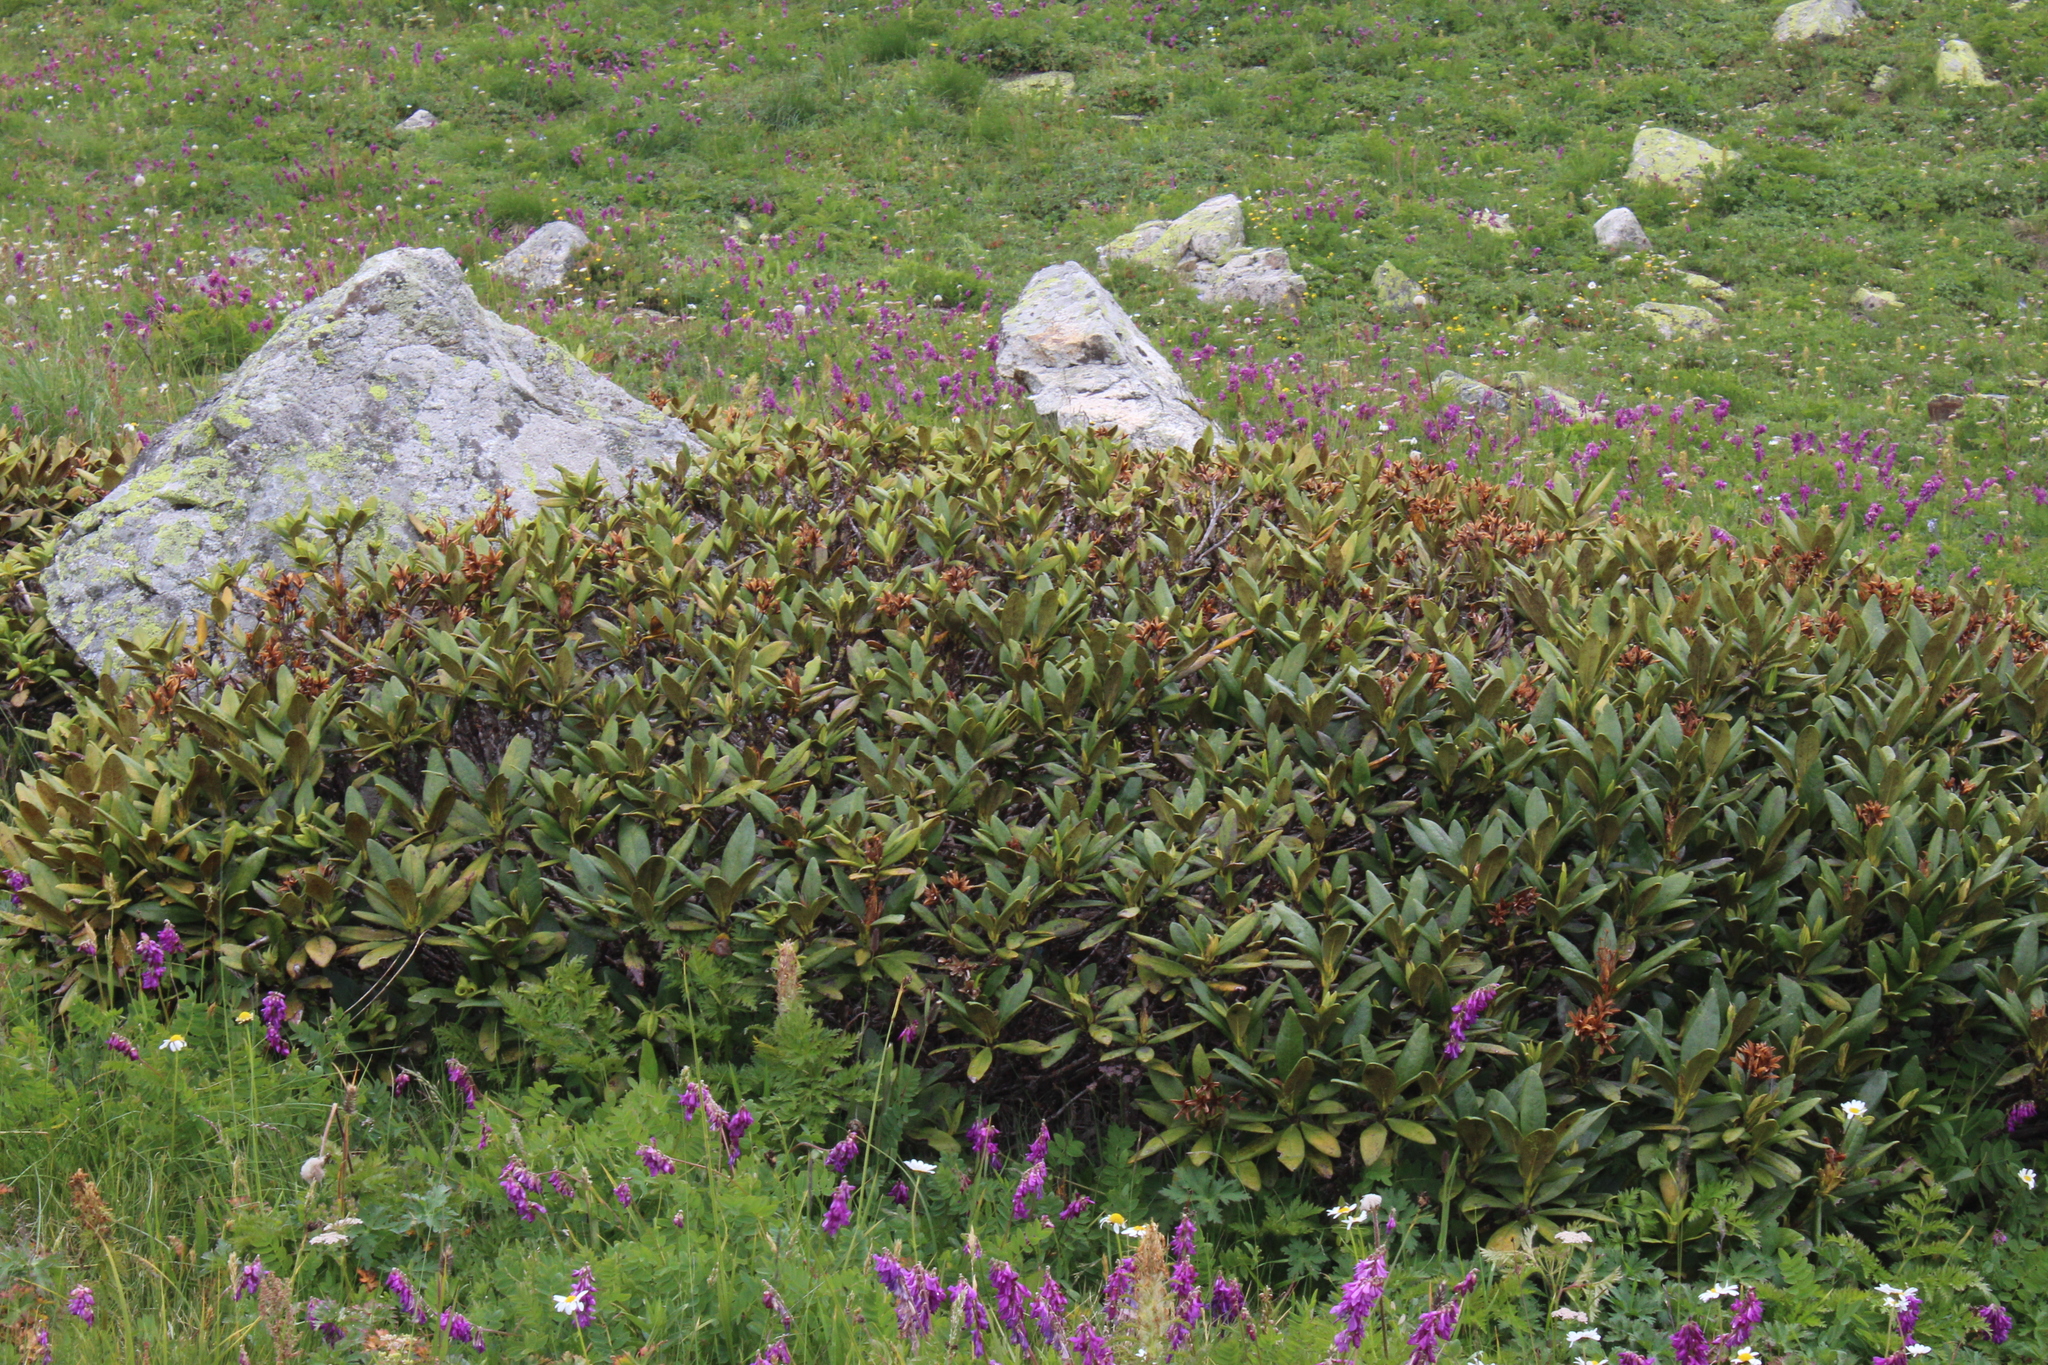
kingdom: Plantae
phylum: Tracheophyta
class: Magnoliopsida
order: Ericales
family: Ericaceae
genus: Rhododendron
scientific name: Rhododendron caucasicum
